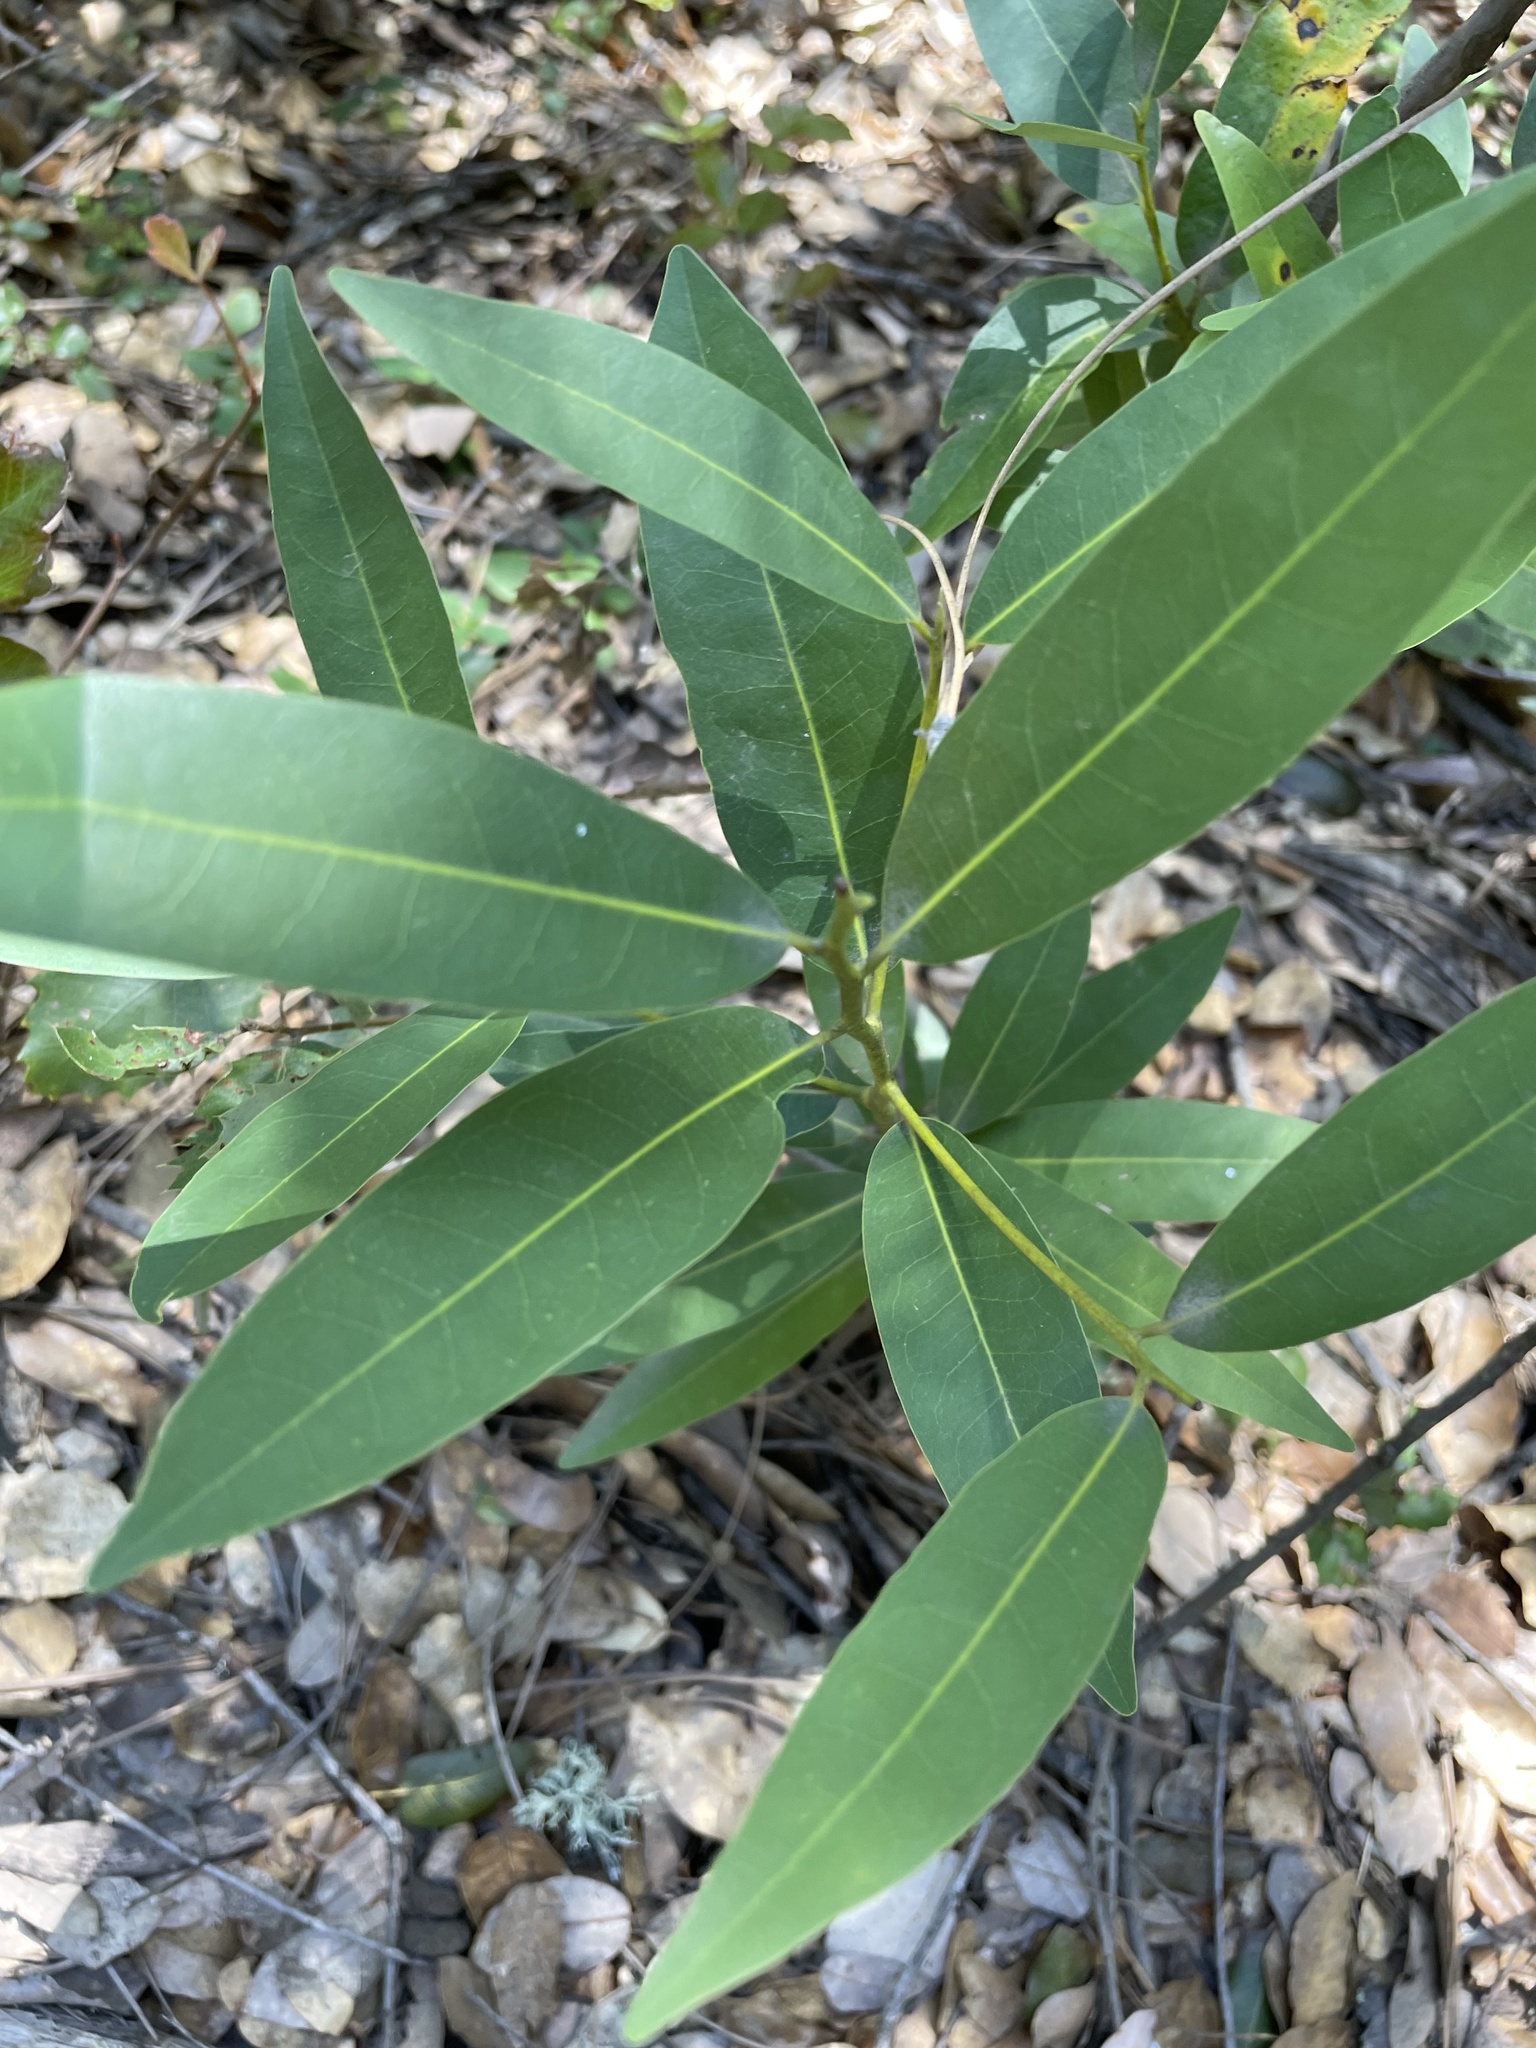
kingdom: Plantae
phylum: Tracheophyta
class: Magnoliopsida
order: Laurales
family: Lauraceae
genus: Umbellularia
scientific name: Umbellularia californica
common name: California bay
